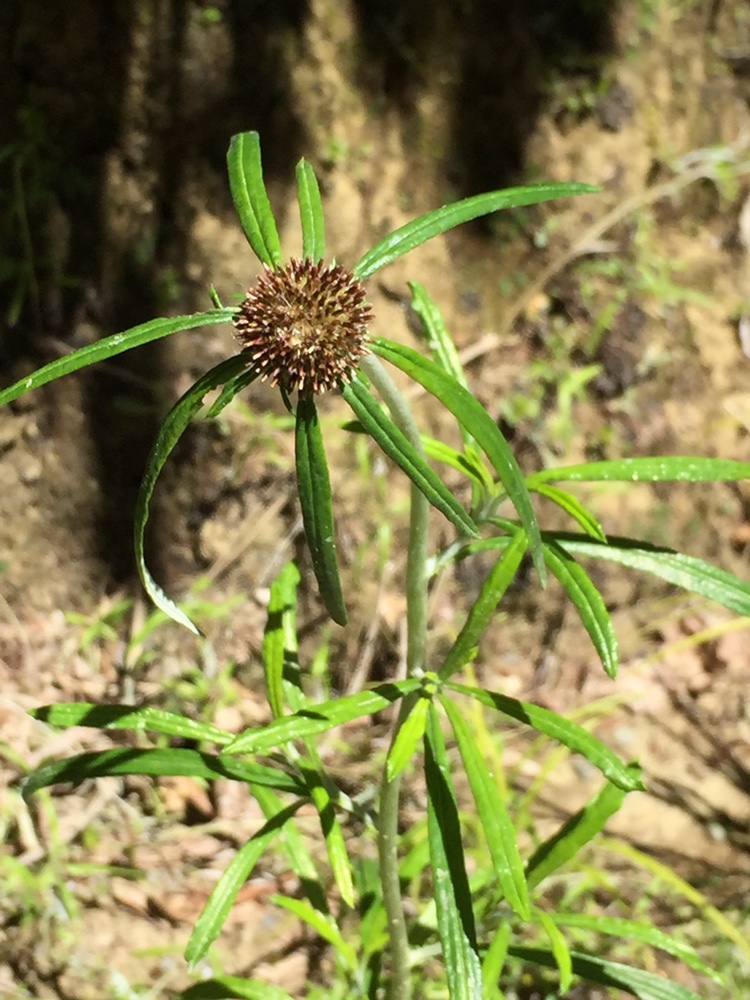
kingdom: Plantae
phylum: Tracheophyta
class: Magnoliopsida
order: Asterales
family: Asteraceae
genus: Euchiton
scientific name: Euchiton sphaericus
